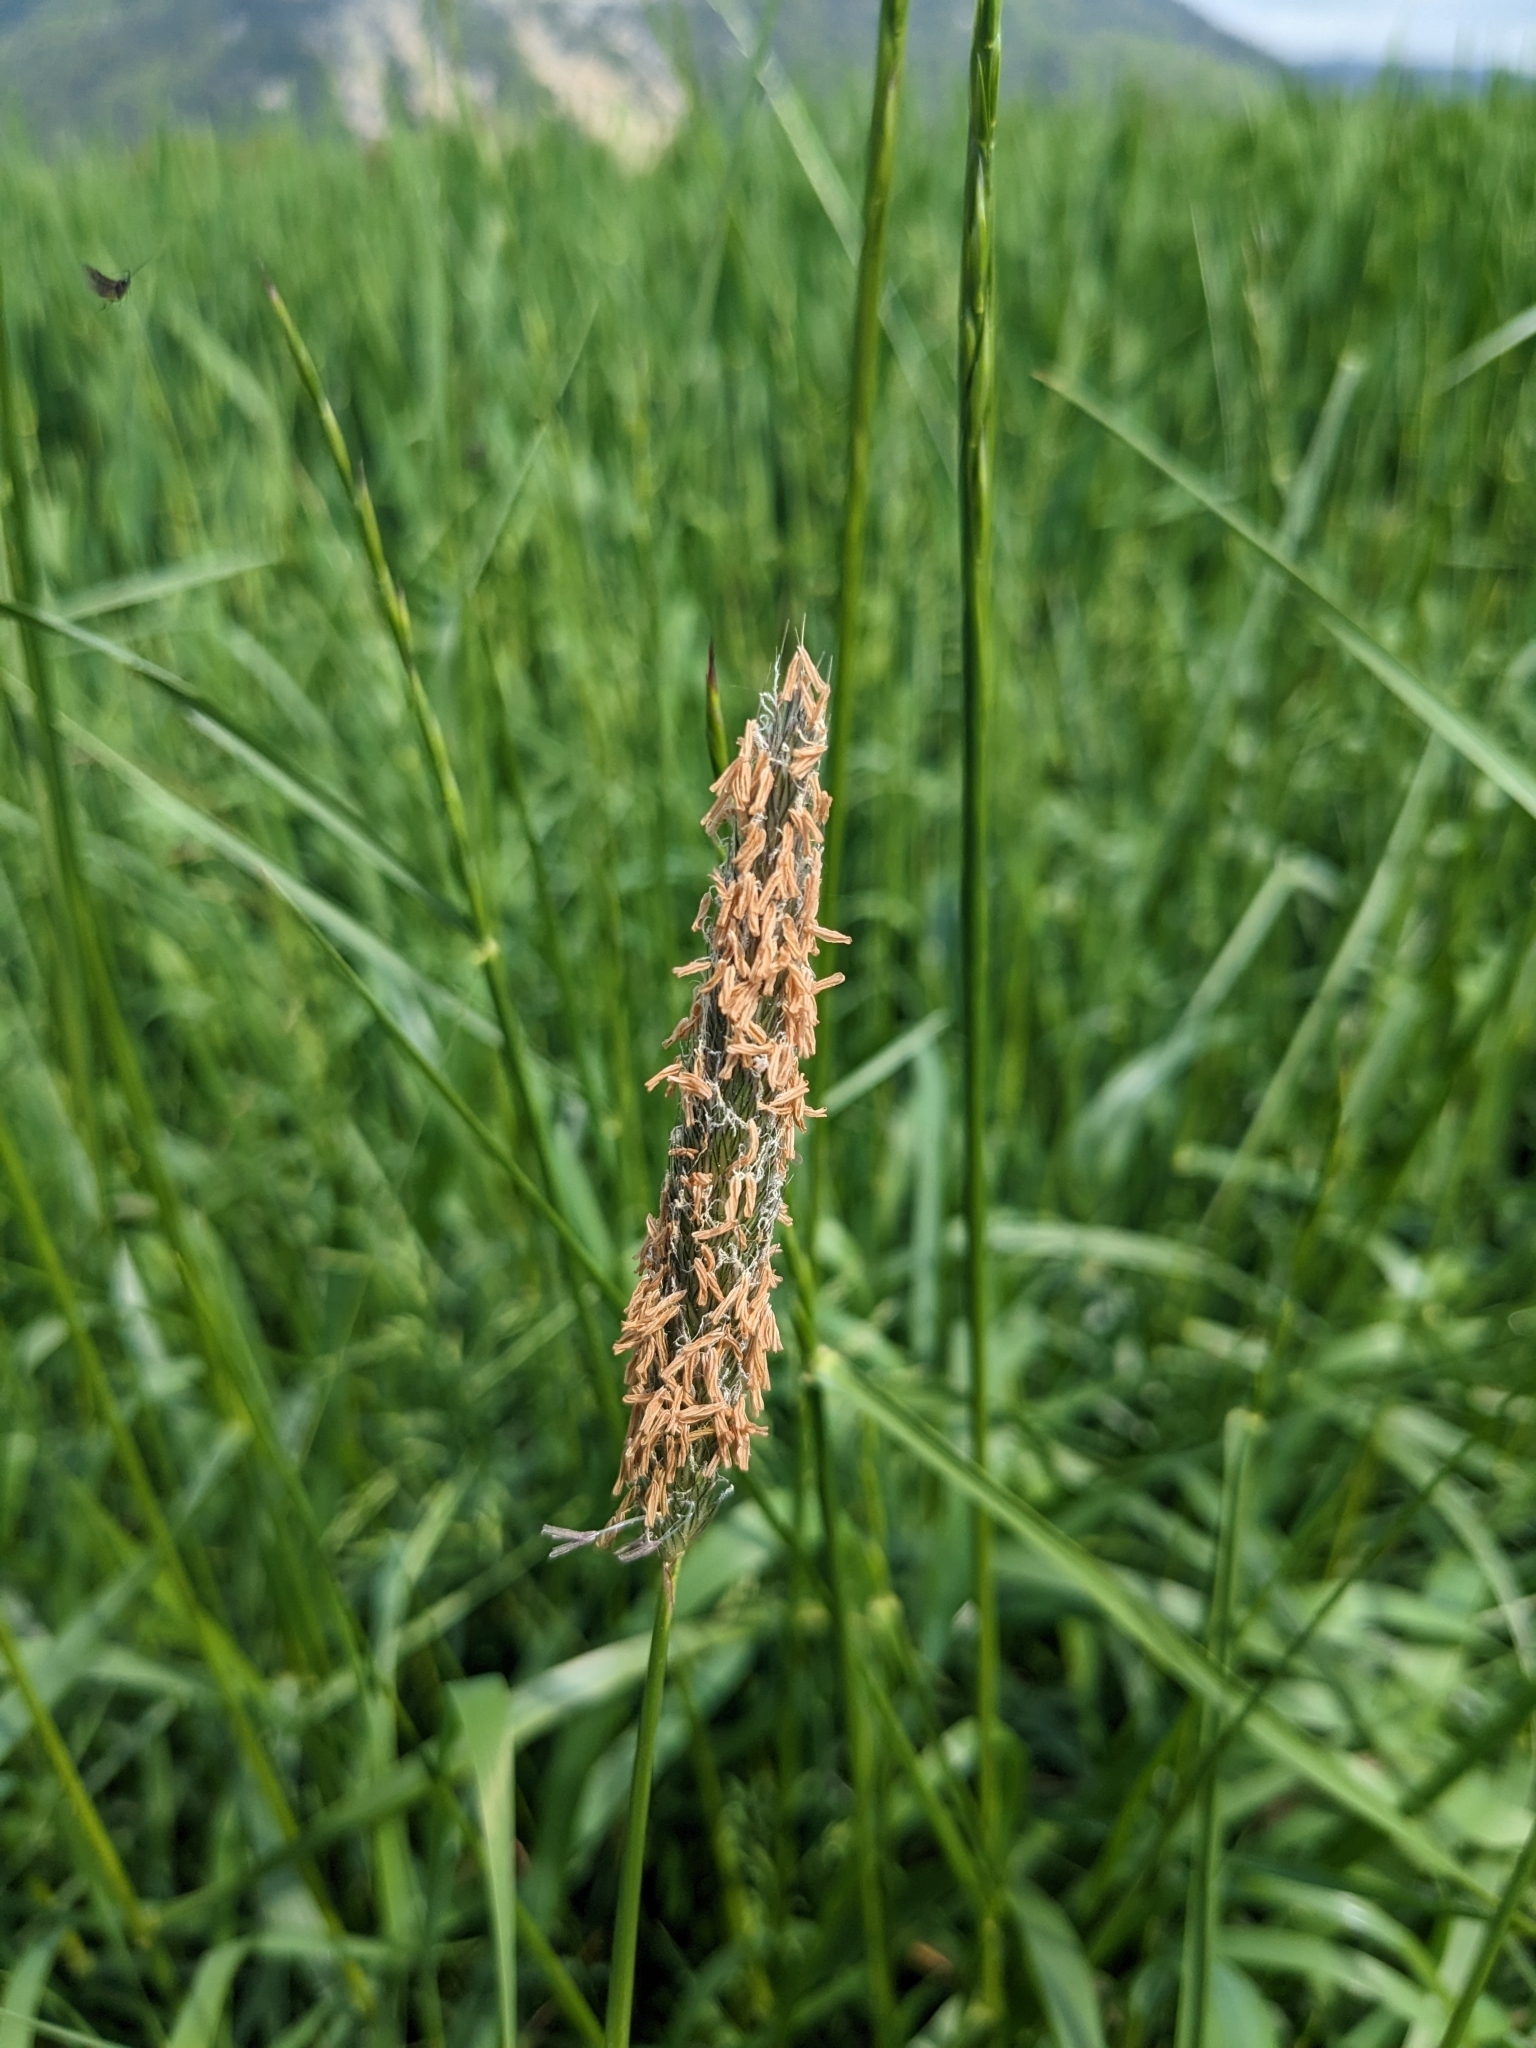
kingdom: Plantae
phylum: Tracheophyta
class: Liliopsida
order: Poales
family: Poaceae
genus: Alopecurus
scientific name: Alopecurus pratensis
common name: Meadow foxtail
